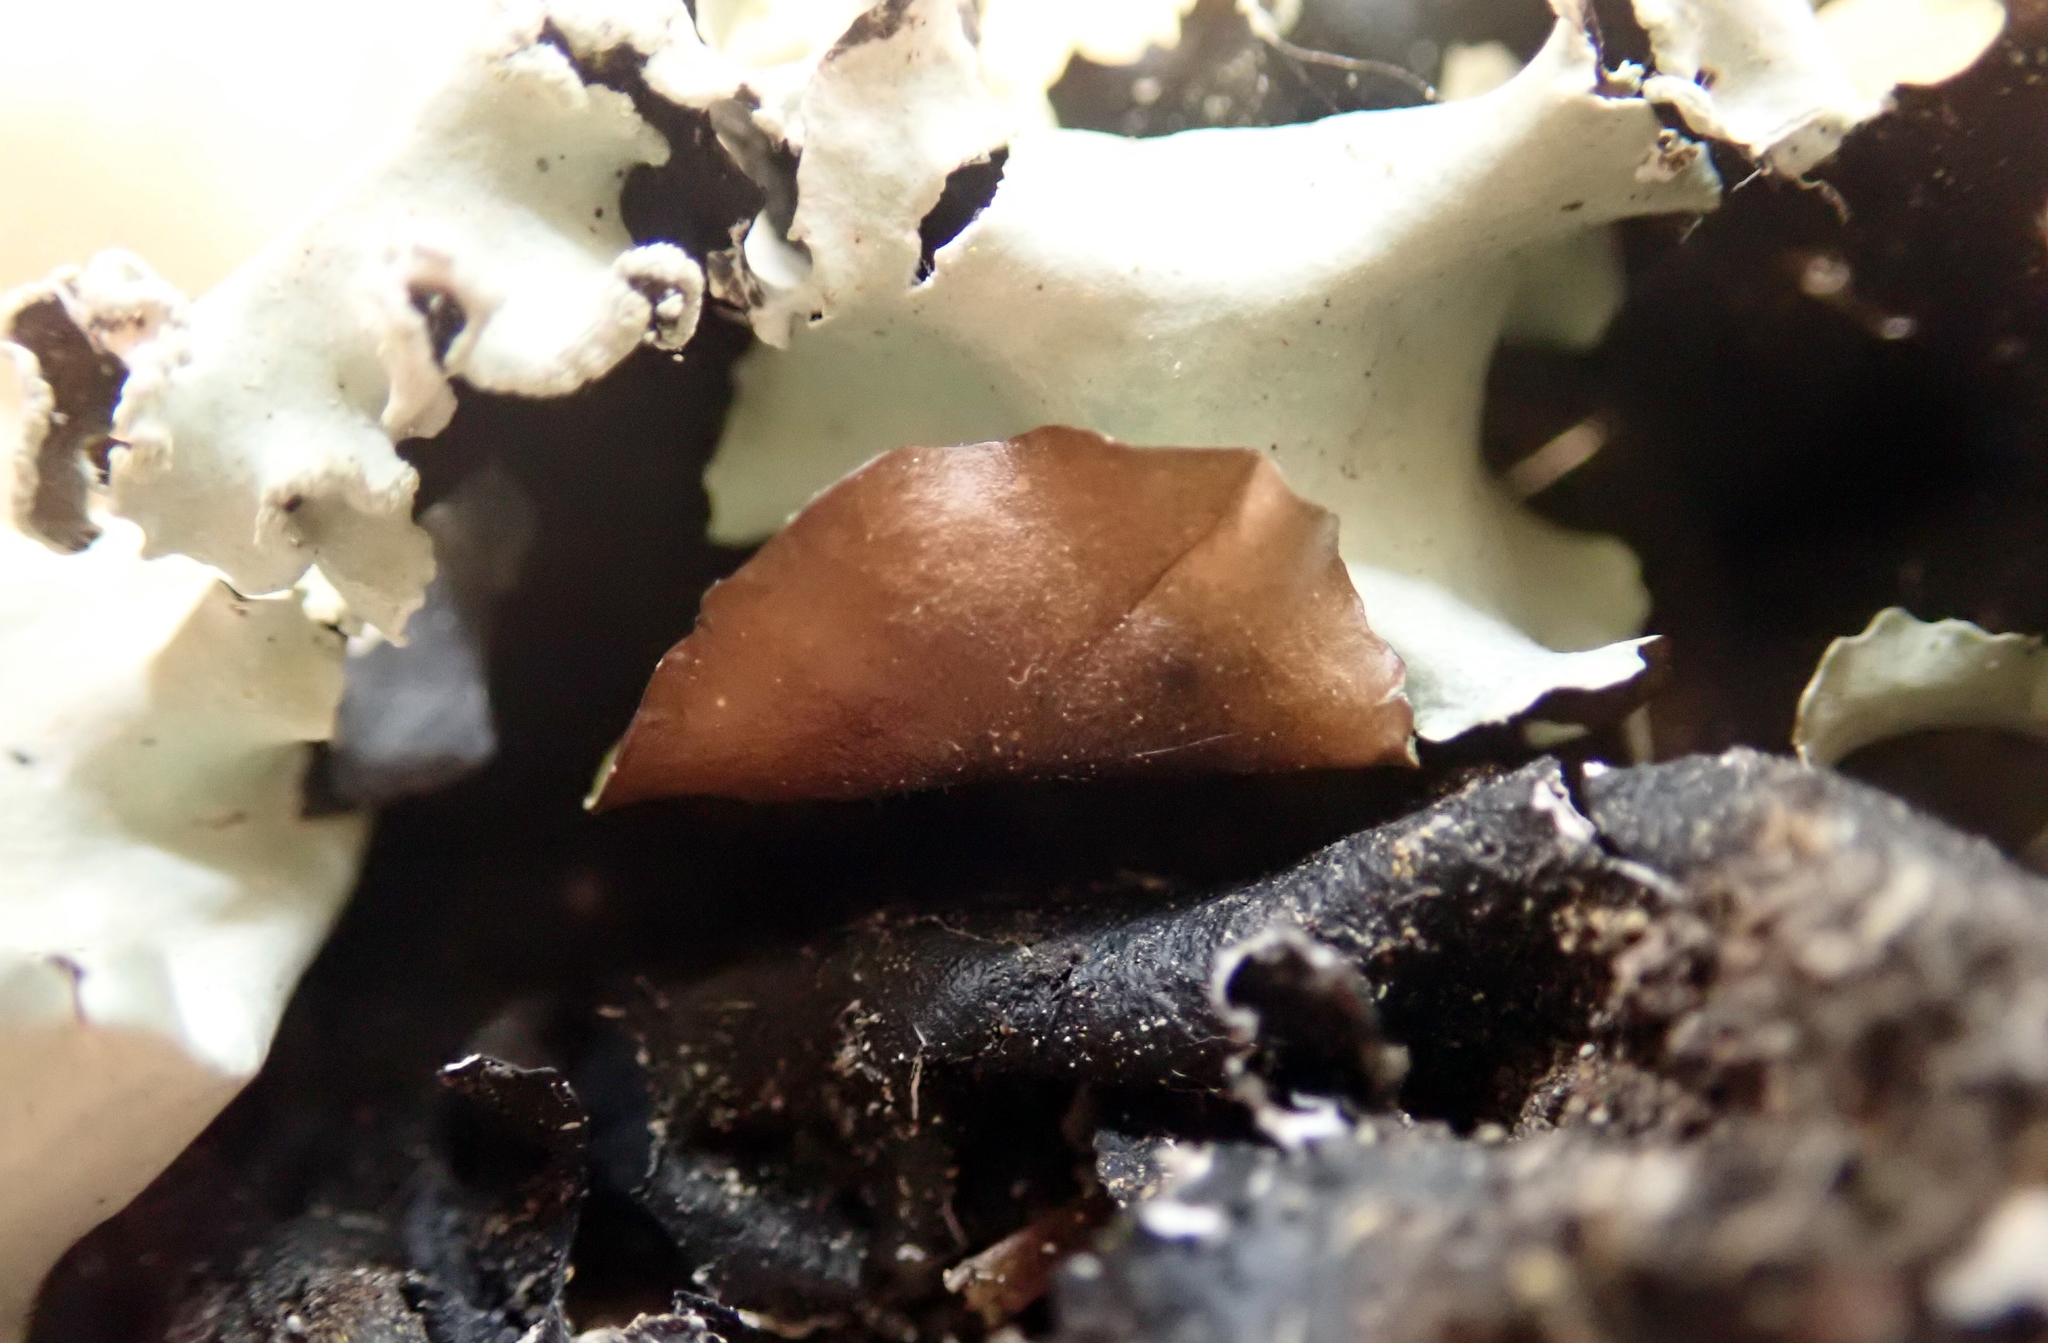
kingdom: Fungi
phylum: Ascomycota
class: Lecanoromycetes
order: Lecanorales
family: Parmeliaceae
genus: Parmotrema
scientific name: Parmotrema robustum
